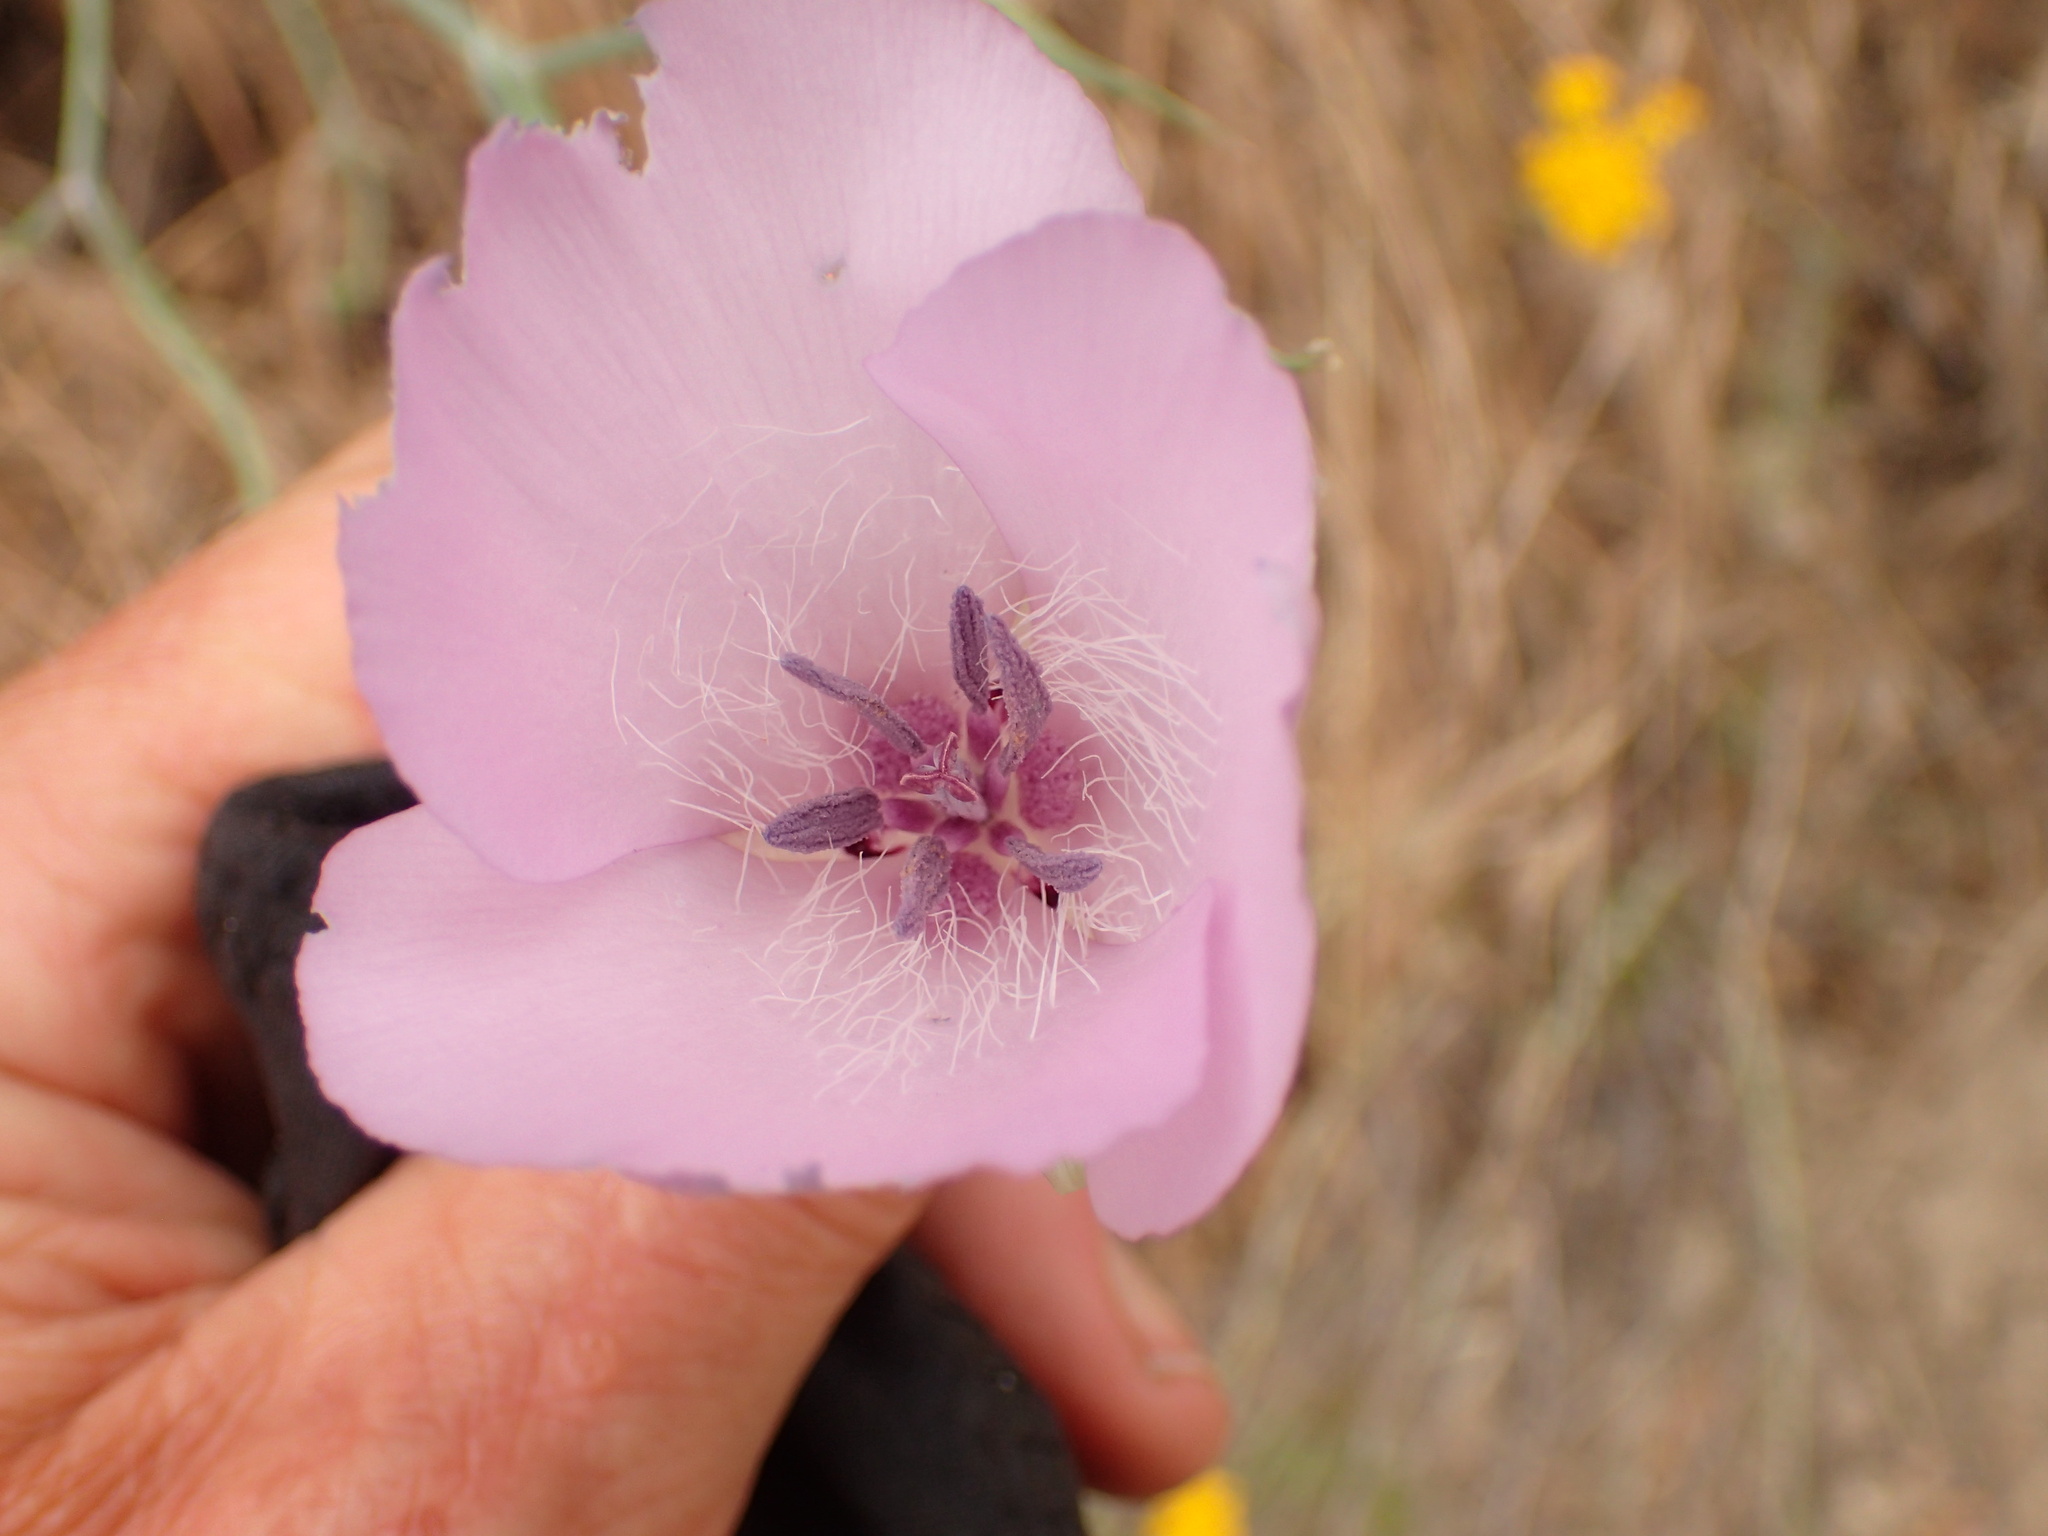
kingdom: Plantae
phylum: Tracheophyta
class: Liliopsida
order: Liliales
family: Liliaceae
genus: Calochortus
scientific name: Calochortus splendens
